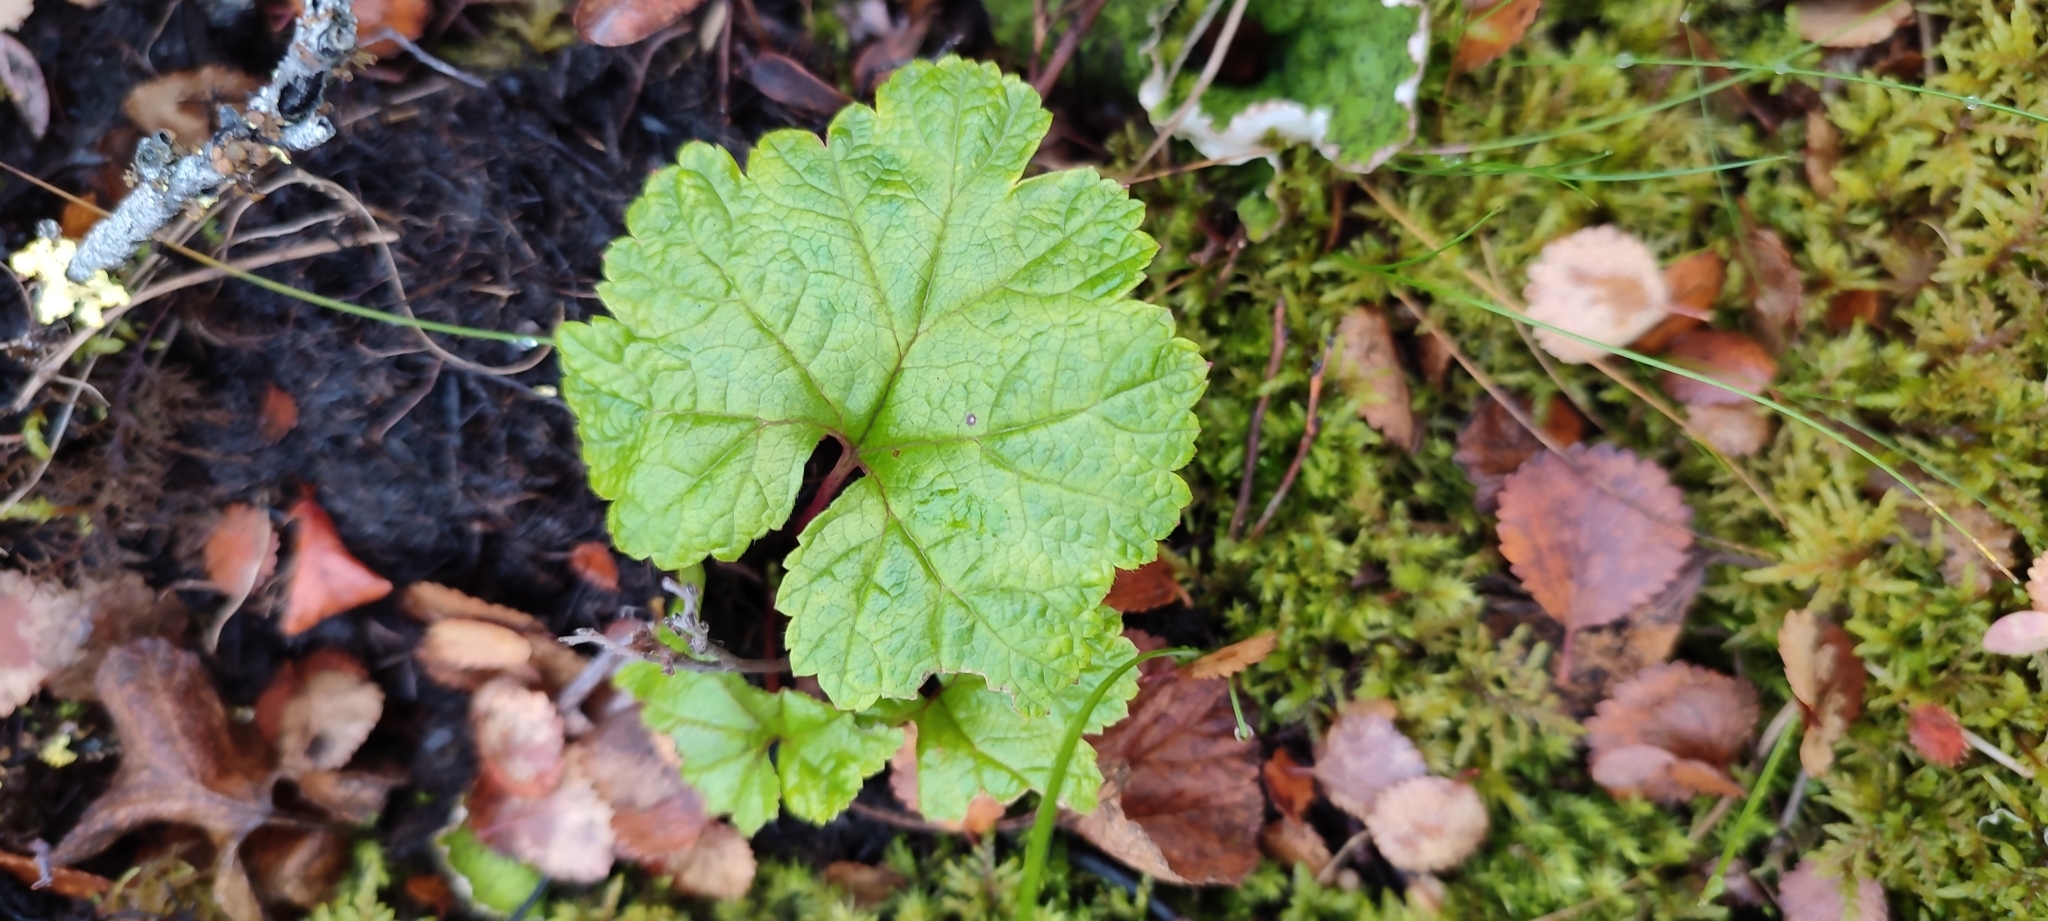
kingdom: Plantae
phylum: Tracheophyta
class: Magnoliopsida
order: Rosales
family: Rosaceae
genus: Rubus
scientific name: Rubus chamaemorus
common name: Cloudberry
